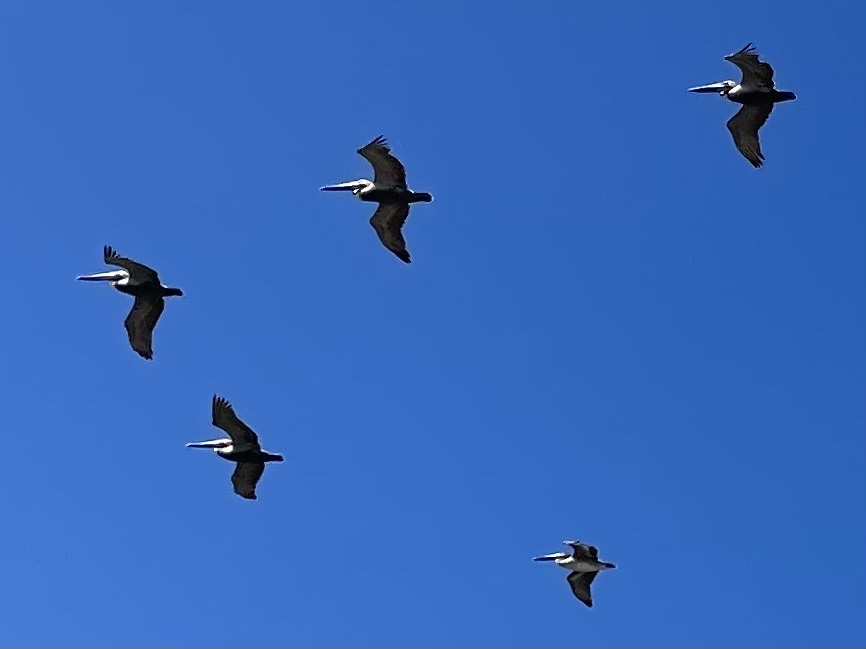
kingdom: Animalia
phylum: Chordata
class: Aves
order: Pelecaniformes
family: Pelecanidae
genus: Pelecanus
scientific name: Pelecanus occidentalis
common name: Brown pelican
